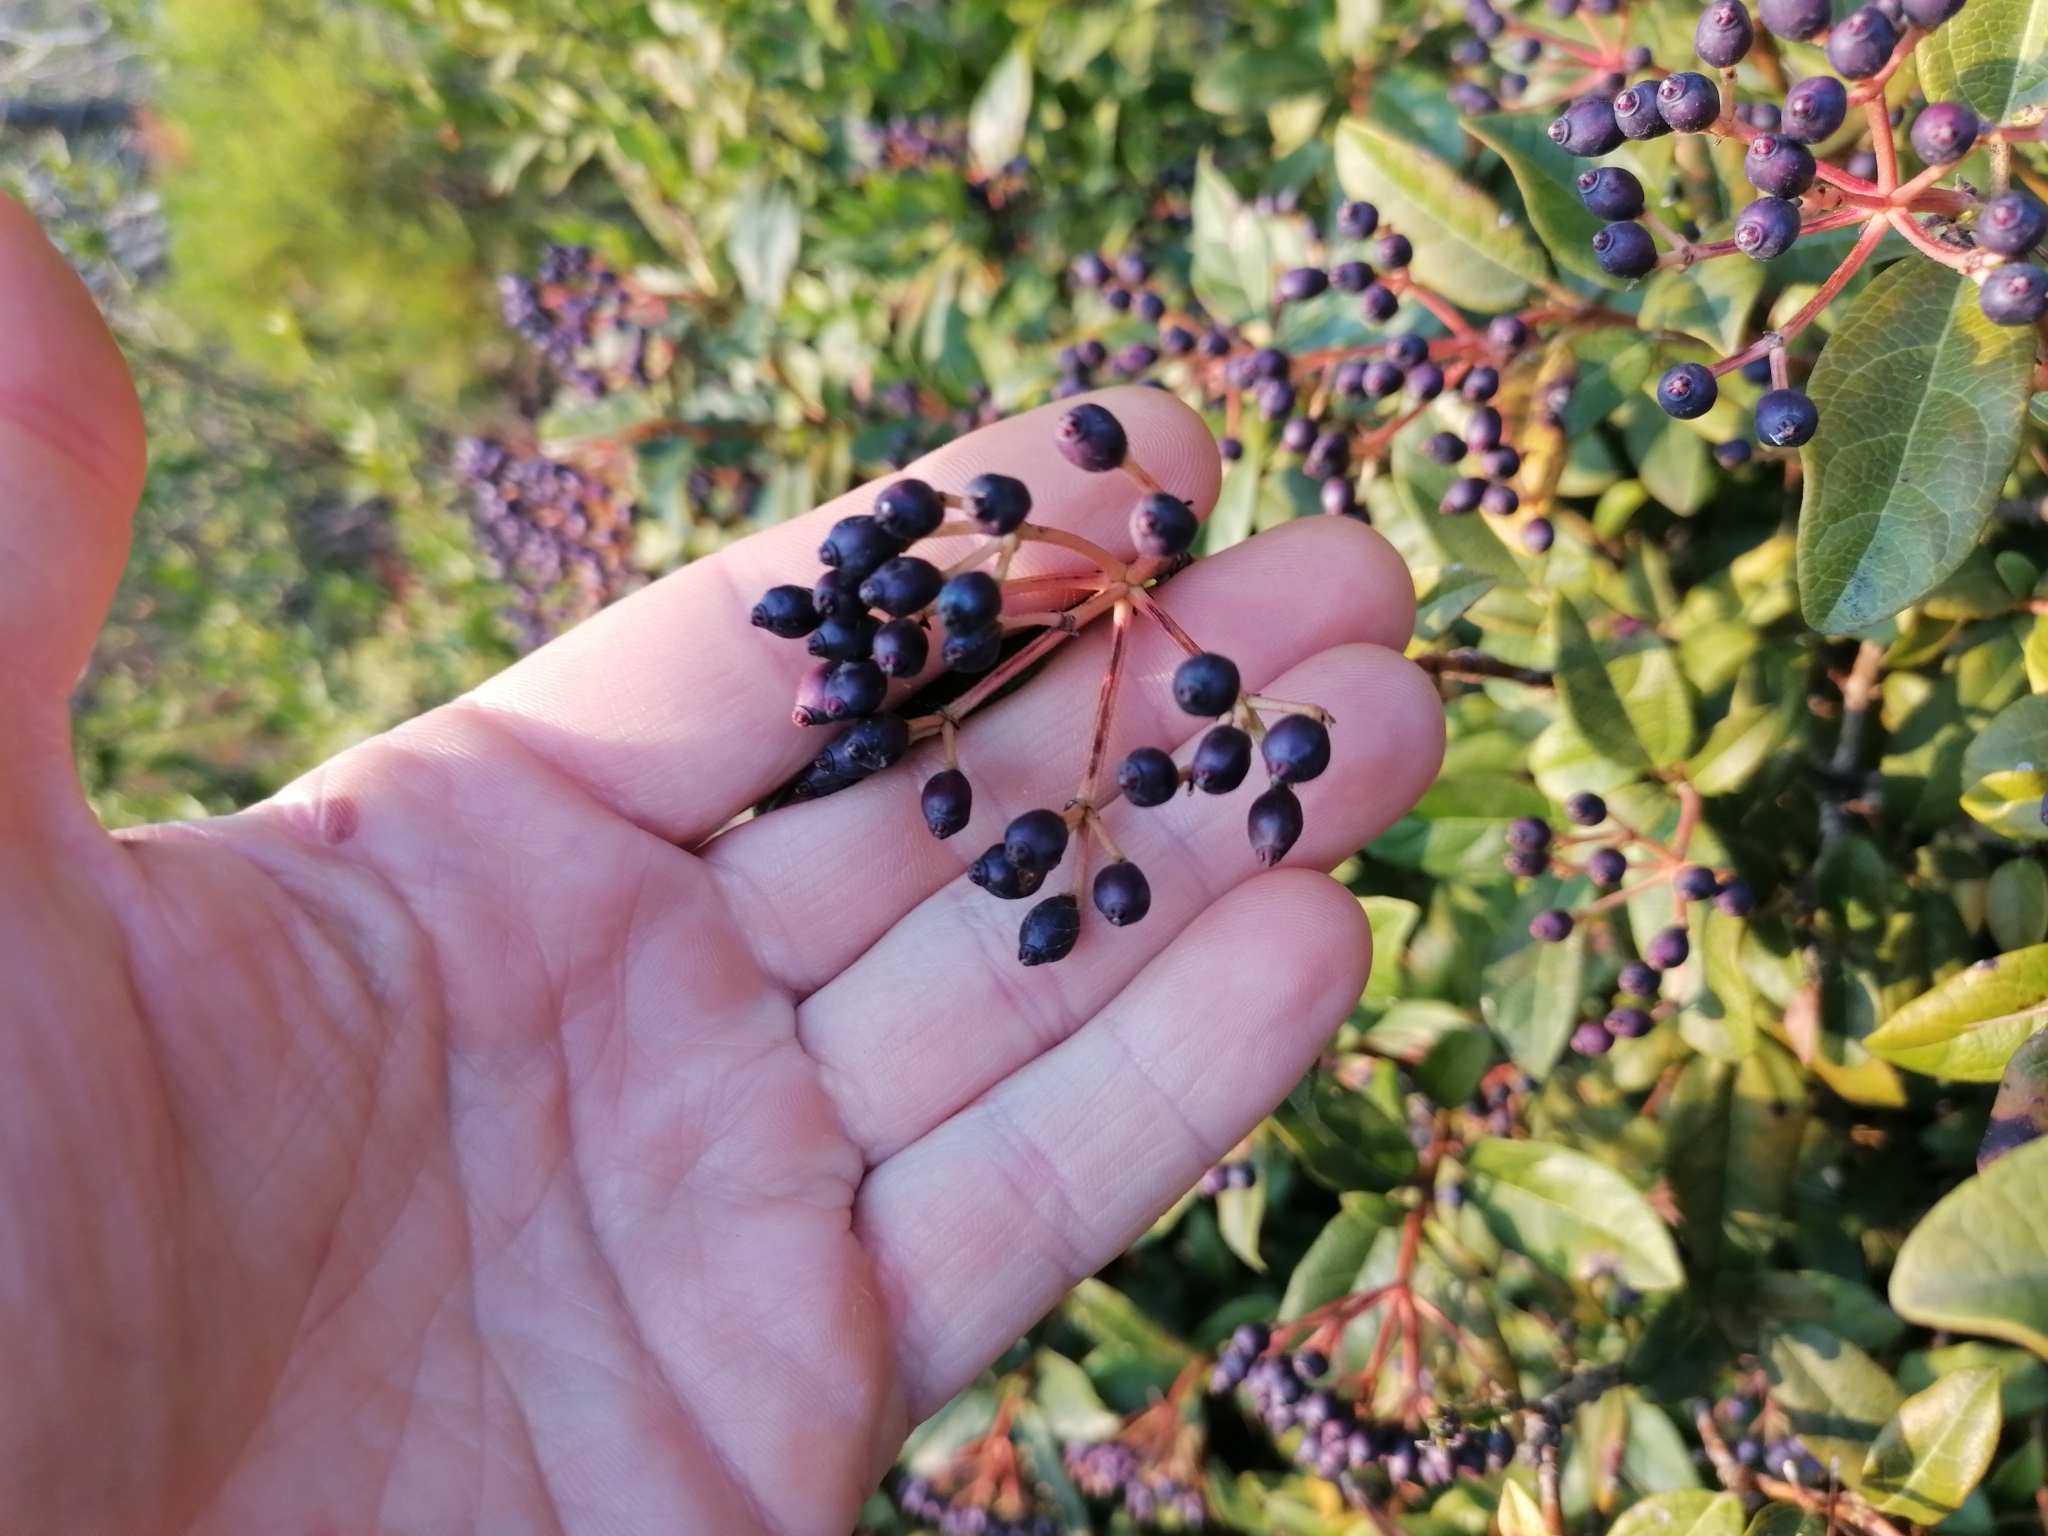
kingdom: Plantae
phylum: Tracheophyta
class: Magnoliopsida
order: Dipsacales
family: Viburnaceae
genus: Viburnum
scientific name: Viburnum tinus
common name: Laurustinus
